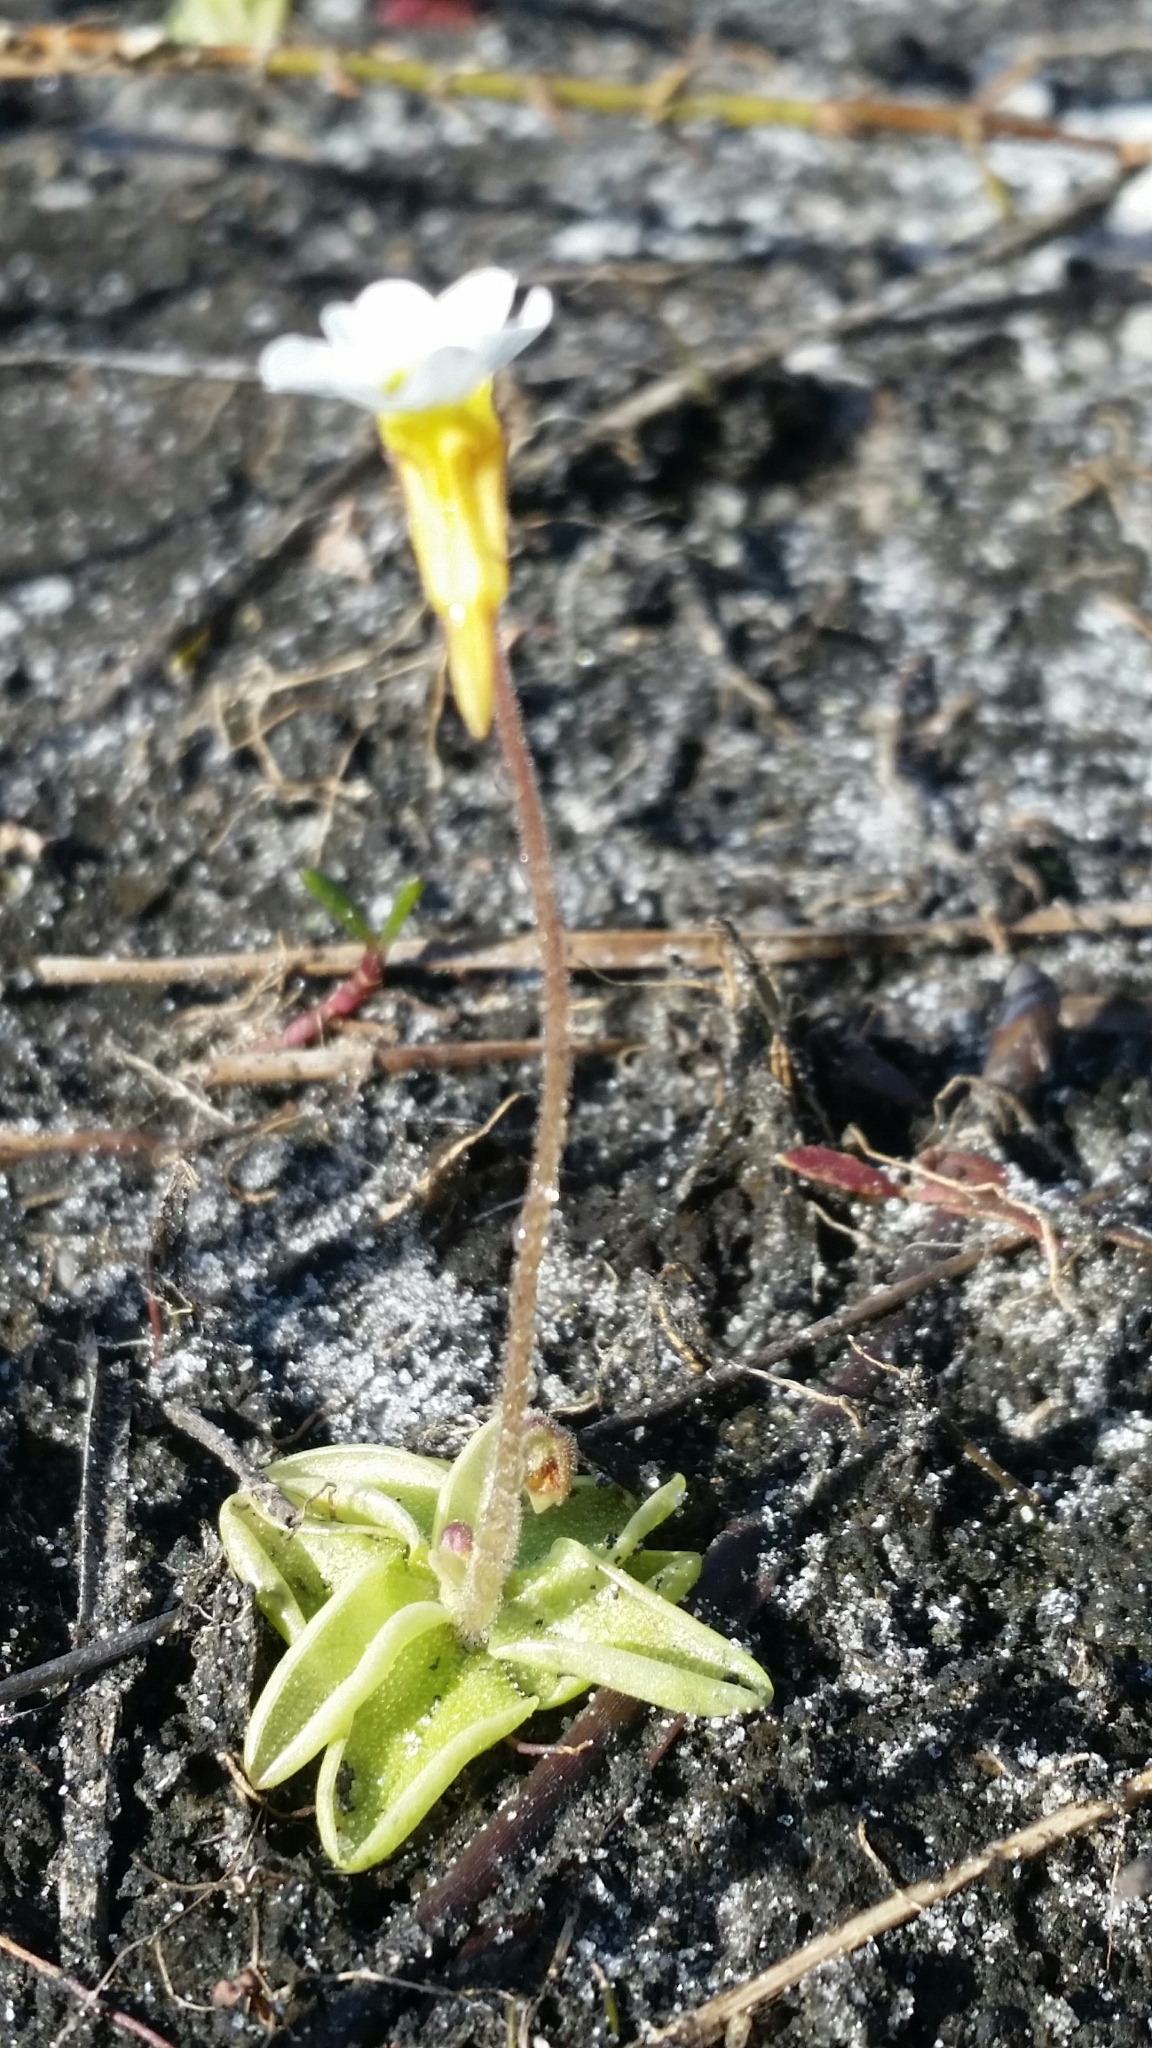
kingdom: Plantae
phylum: Tracheophyta
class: Magnoliopsida
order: Lamiales
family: Lentibulariaceae
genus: Pinguicula
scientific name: Pinguicula pumila
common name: Small butterwort
